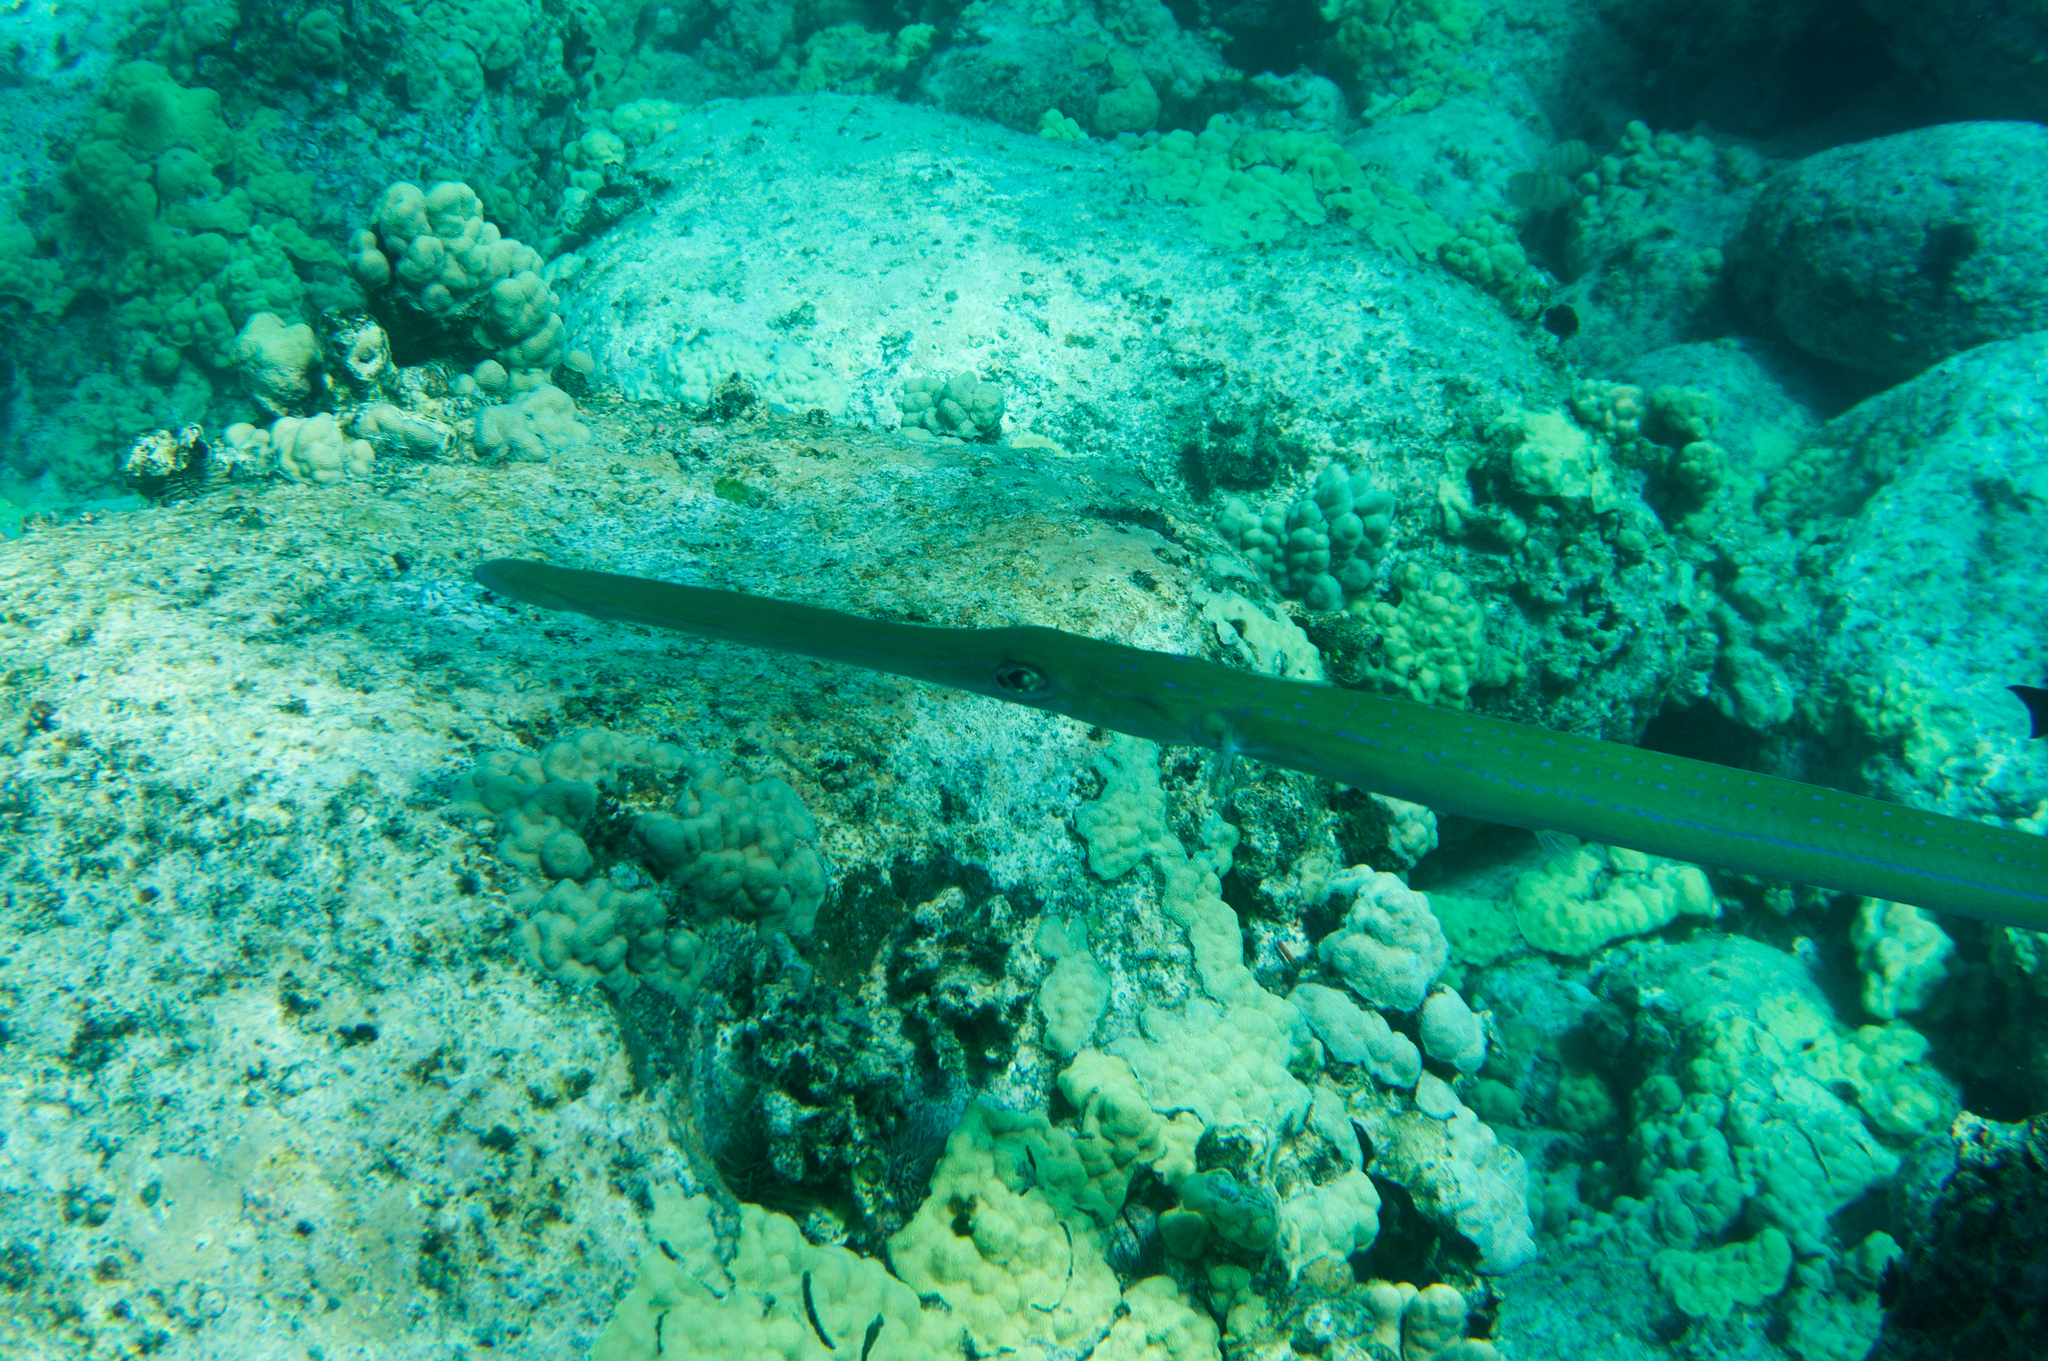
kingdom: Animalia
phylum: Chordata
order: Syngnathiformes
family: Fistulariidae
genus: Fistularia
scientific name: Fistularia commersonii
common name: Bluespotted cornetfish
